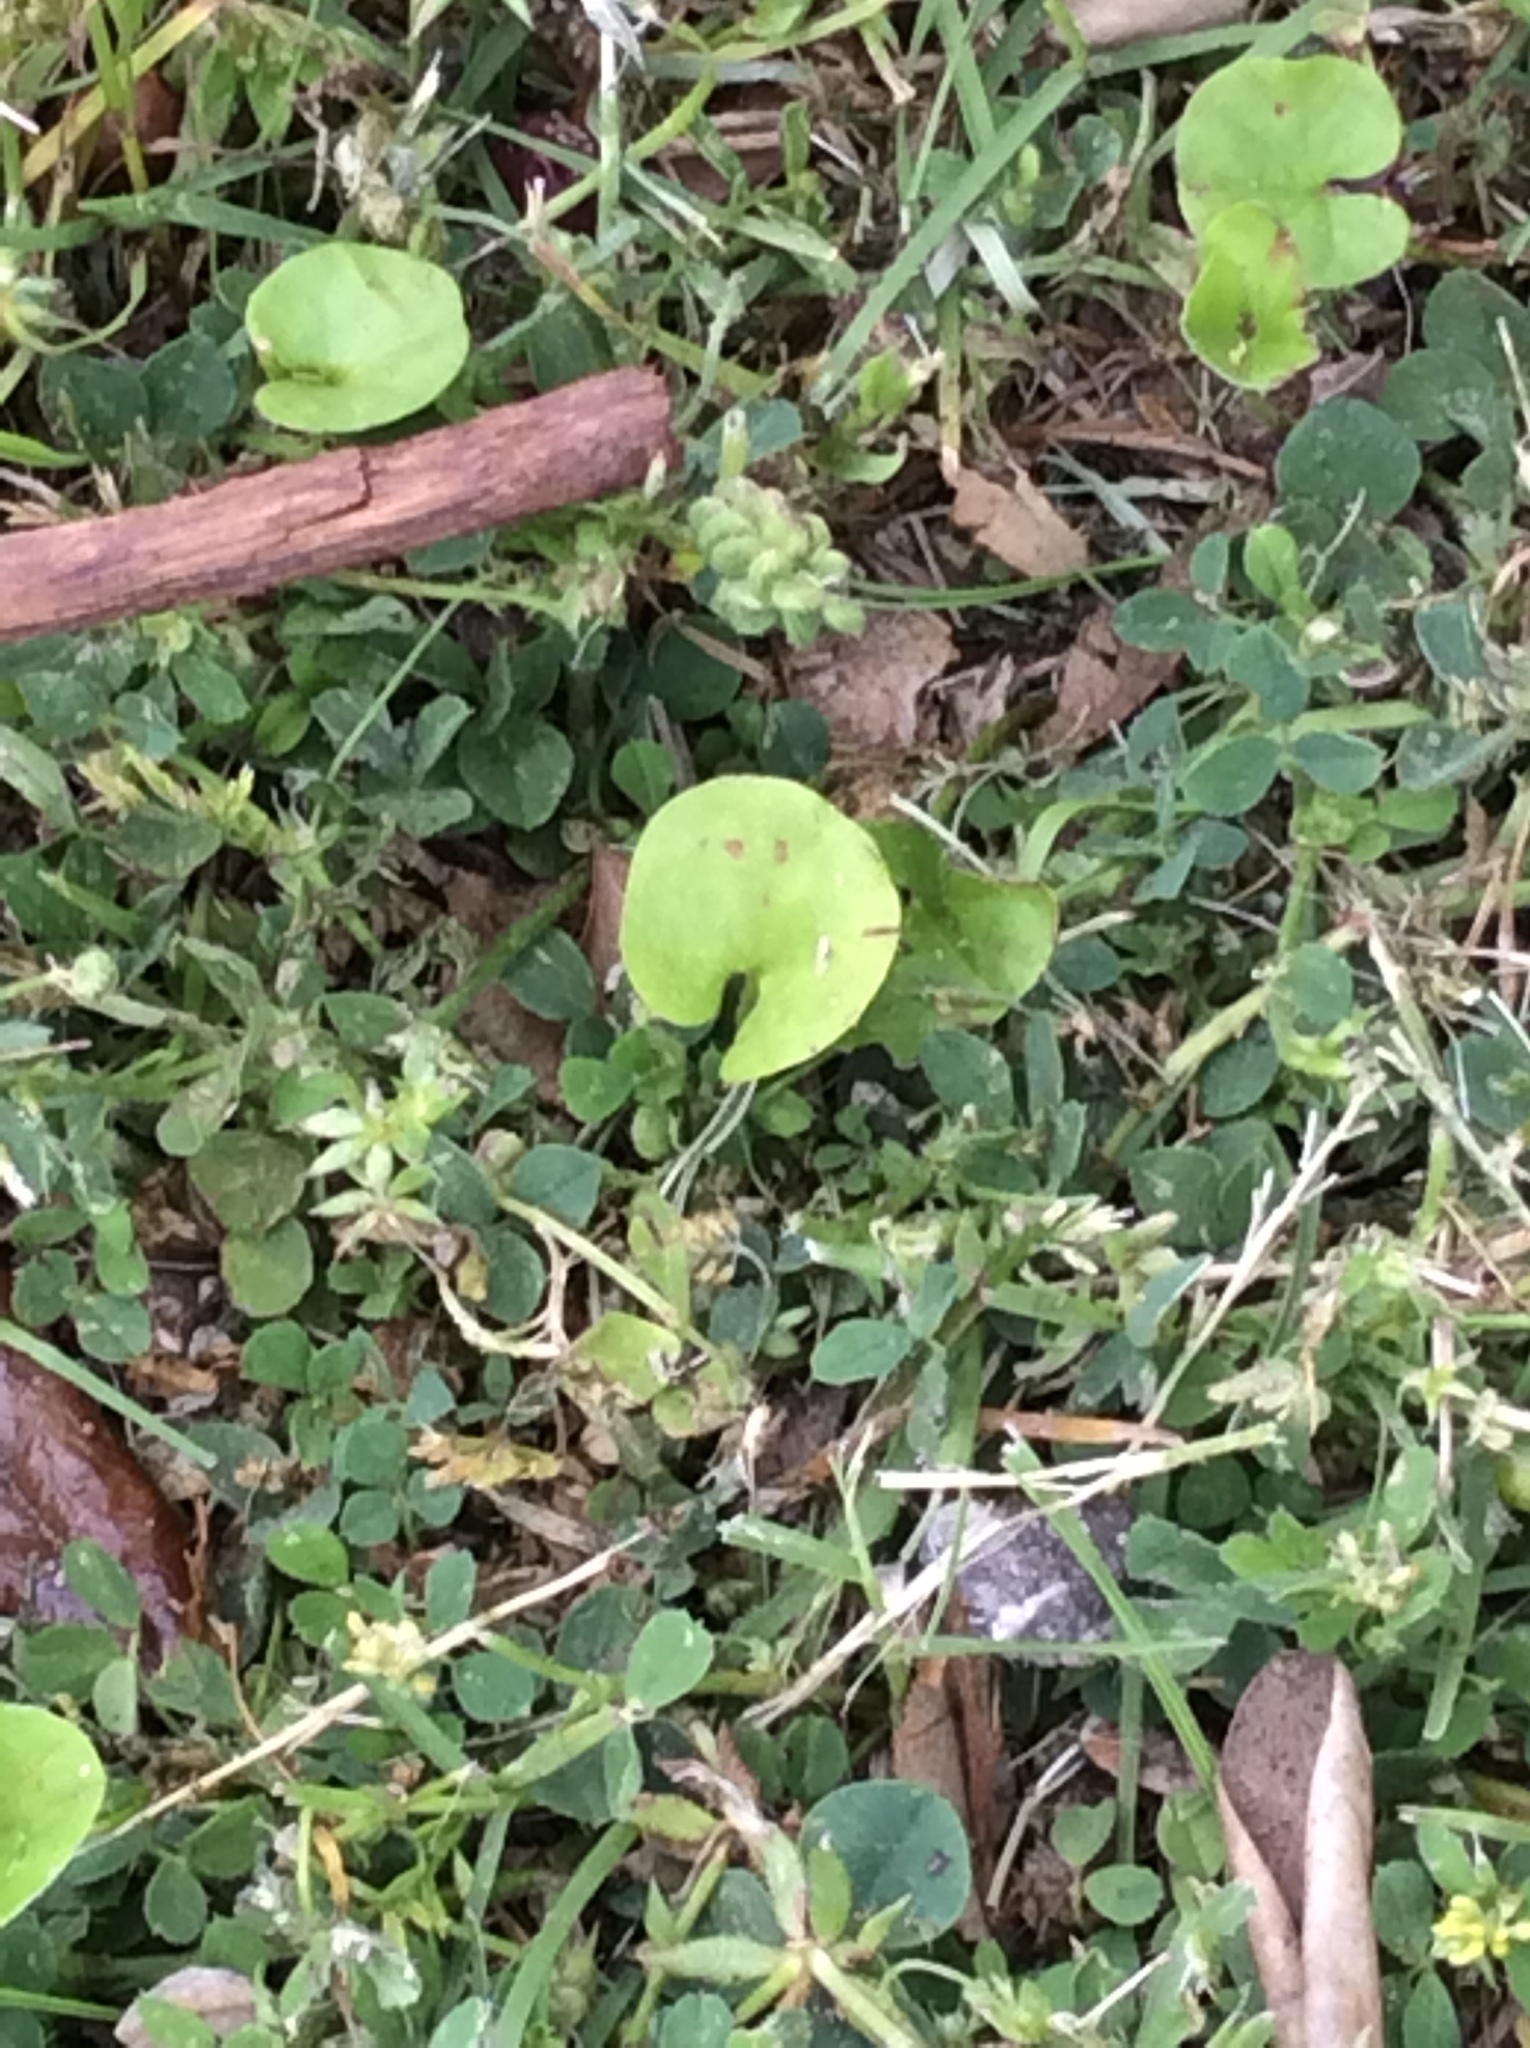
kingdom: Plantae
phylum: Tracheophyta
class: Magnoliopsida
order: Solanales
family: Convolvulaceae
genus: Dichondra
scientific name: Dichondra carolinensis
